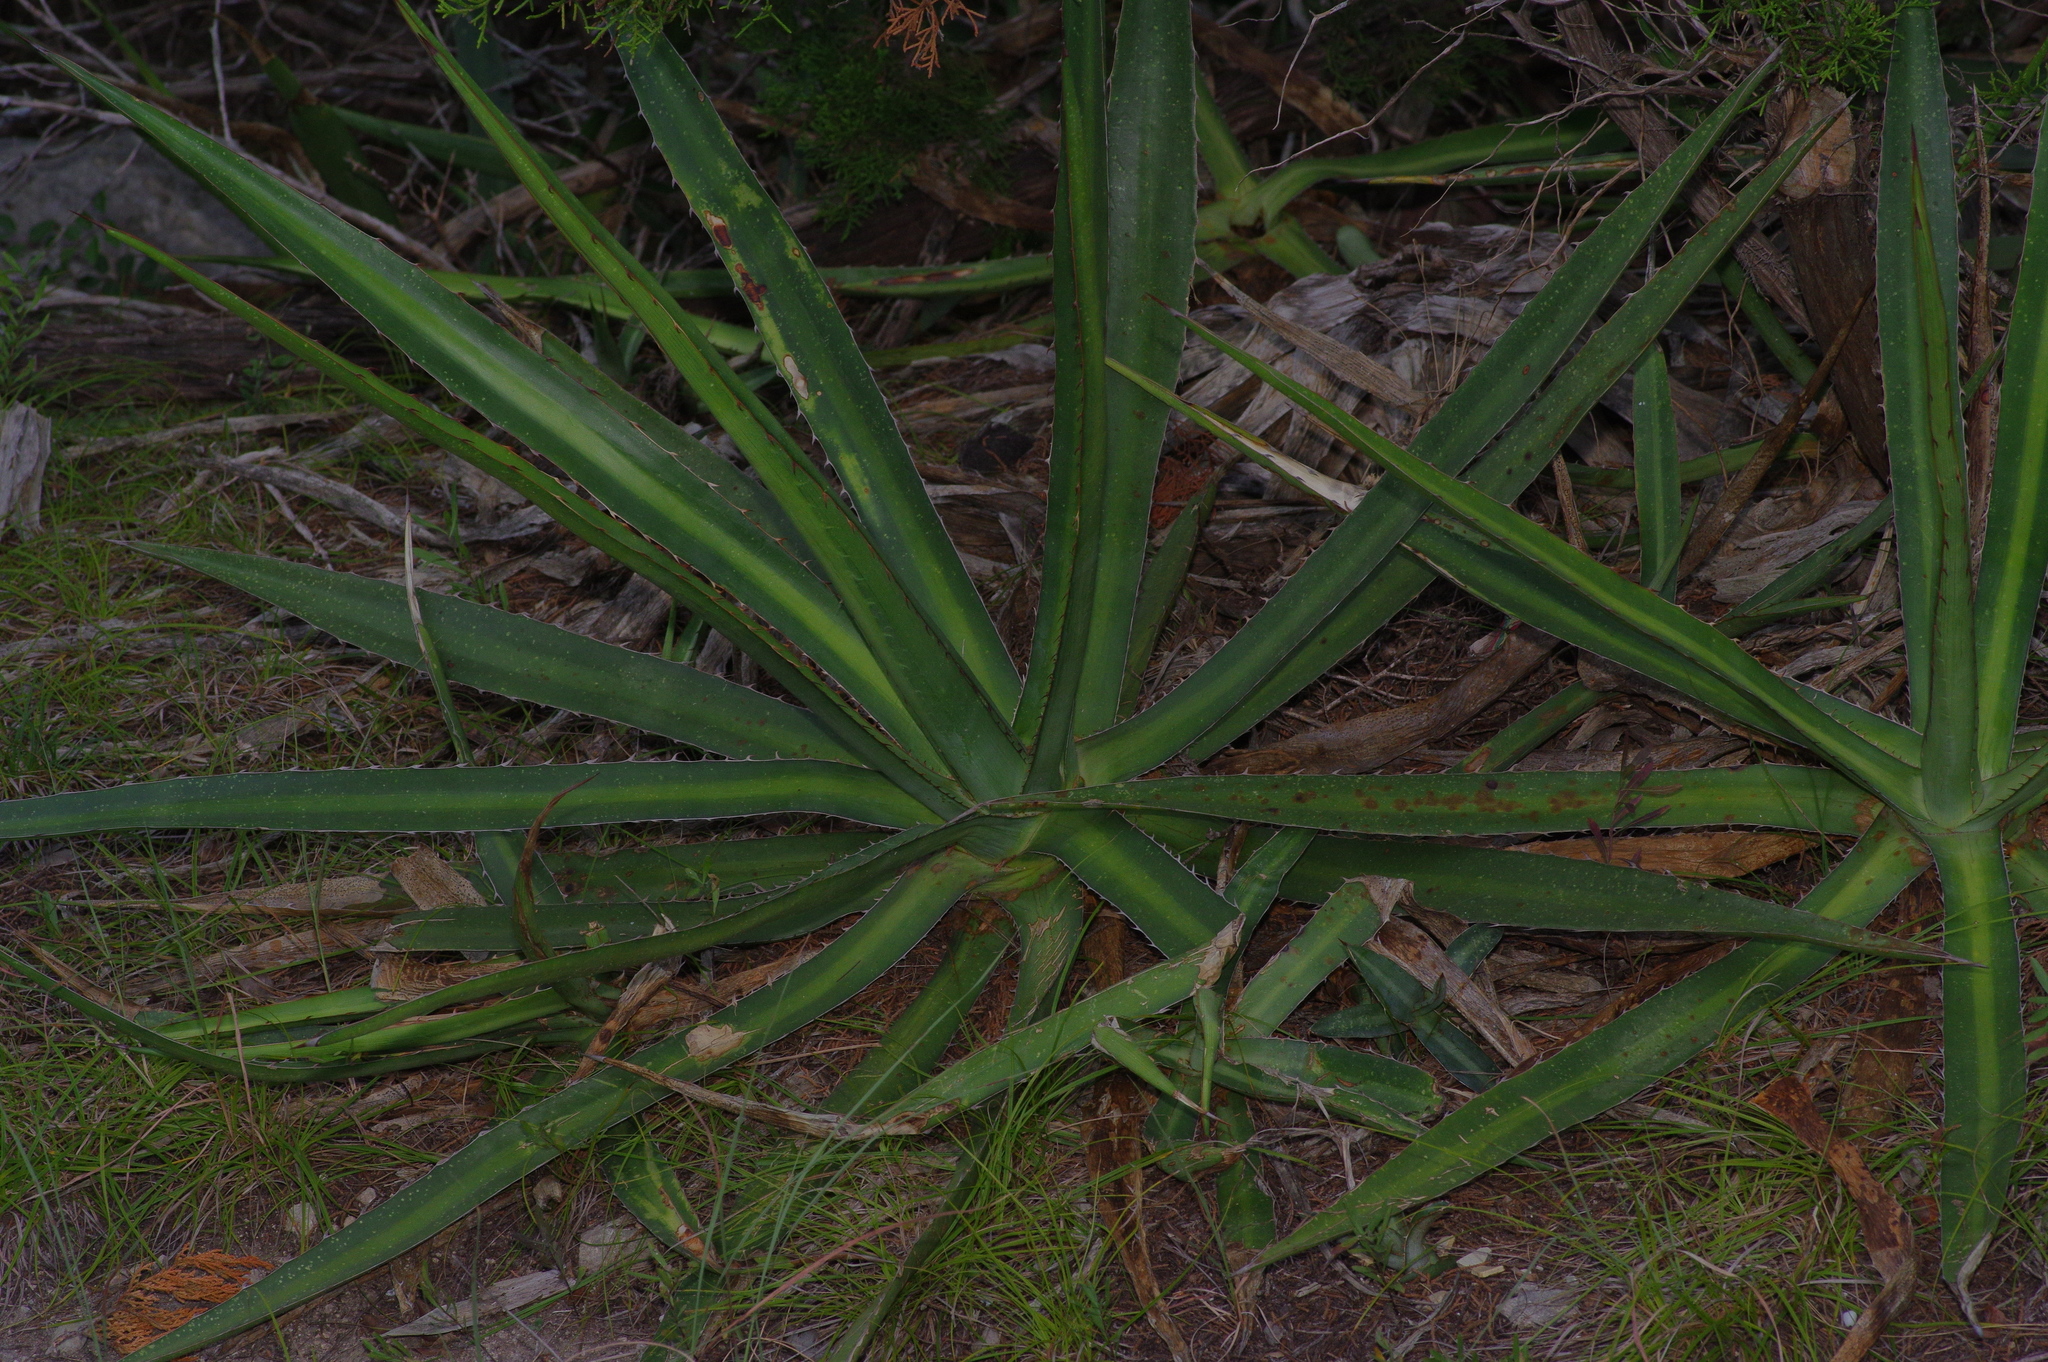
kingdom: Plantae
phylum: Tracheophyta
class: Liliopsida
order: Asparagales
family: Asparagaceae
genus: Agave
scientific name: Agave univittata
